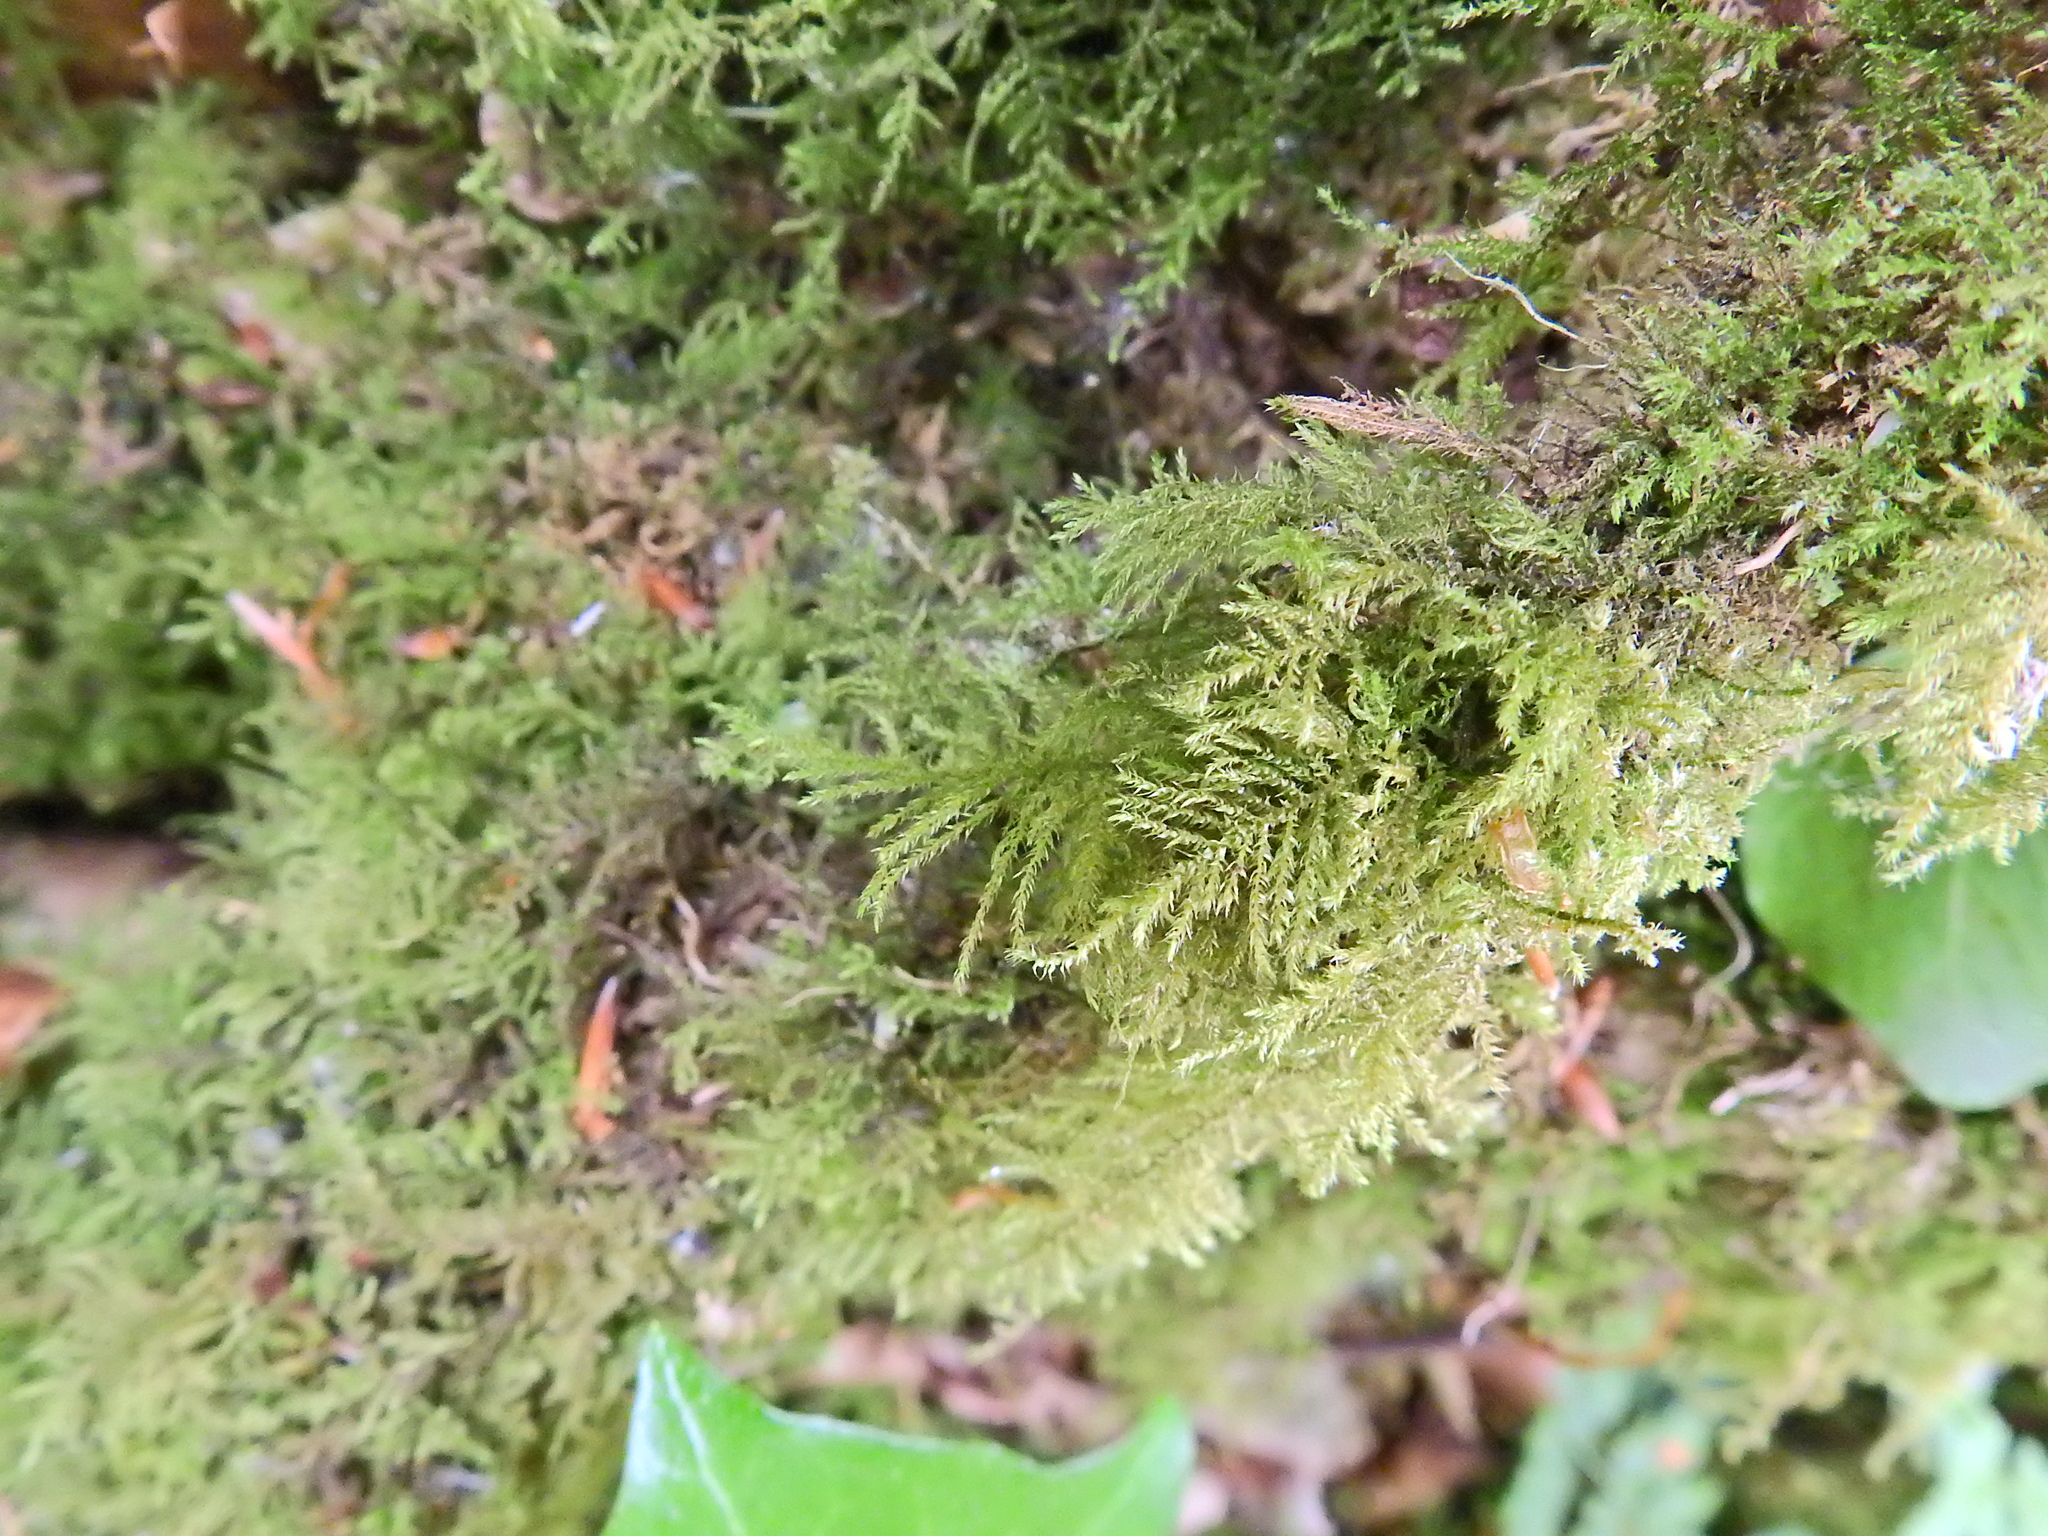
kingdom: Plantae
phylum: Bryophyta
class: Bryopsida
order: Hypnales
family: Brachytheciaceae
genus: Kindbergia
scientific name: Kindbergia praelonga
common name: Slender beaked moss
